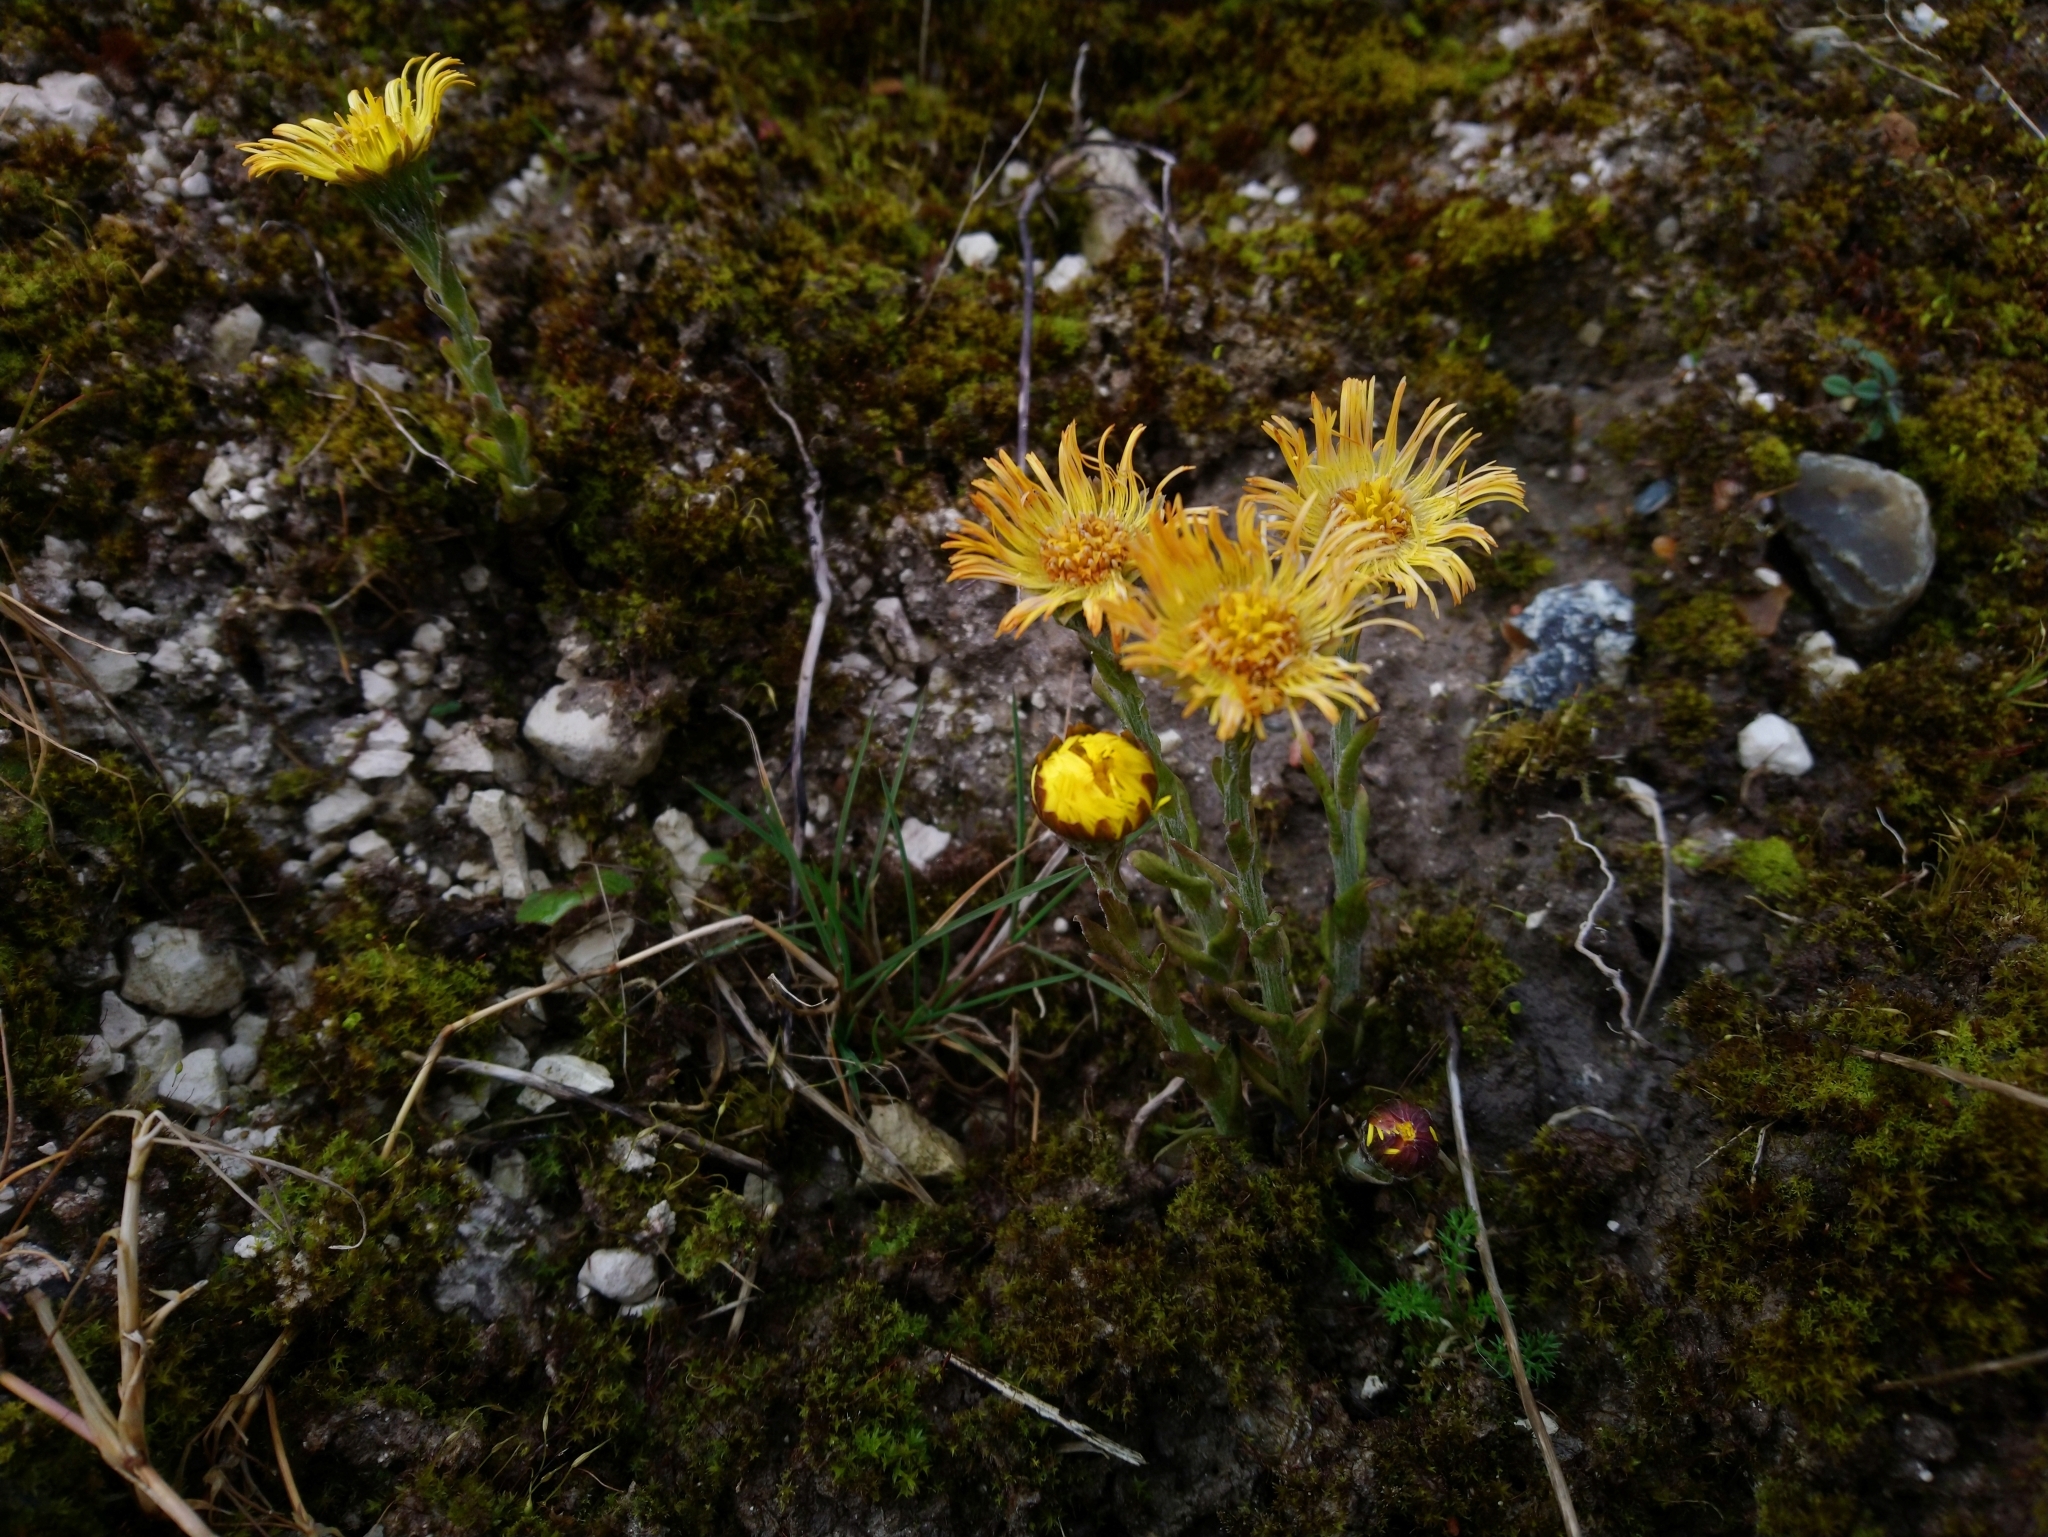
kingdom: Plantae
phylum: Tracheophyta
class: Magnoliopsida
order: Asterales
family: Asteraceae
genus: Tussilago
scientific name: Tussilago farfara
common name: Coltsfoot
